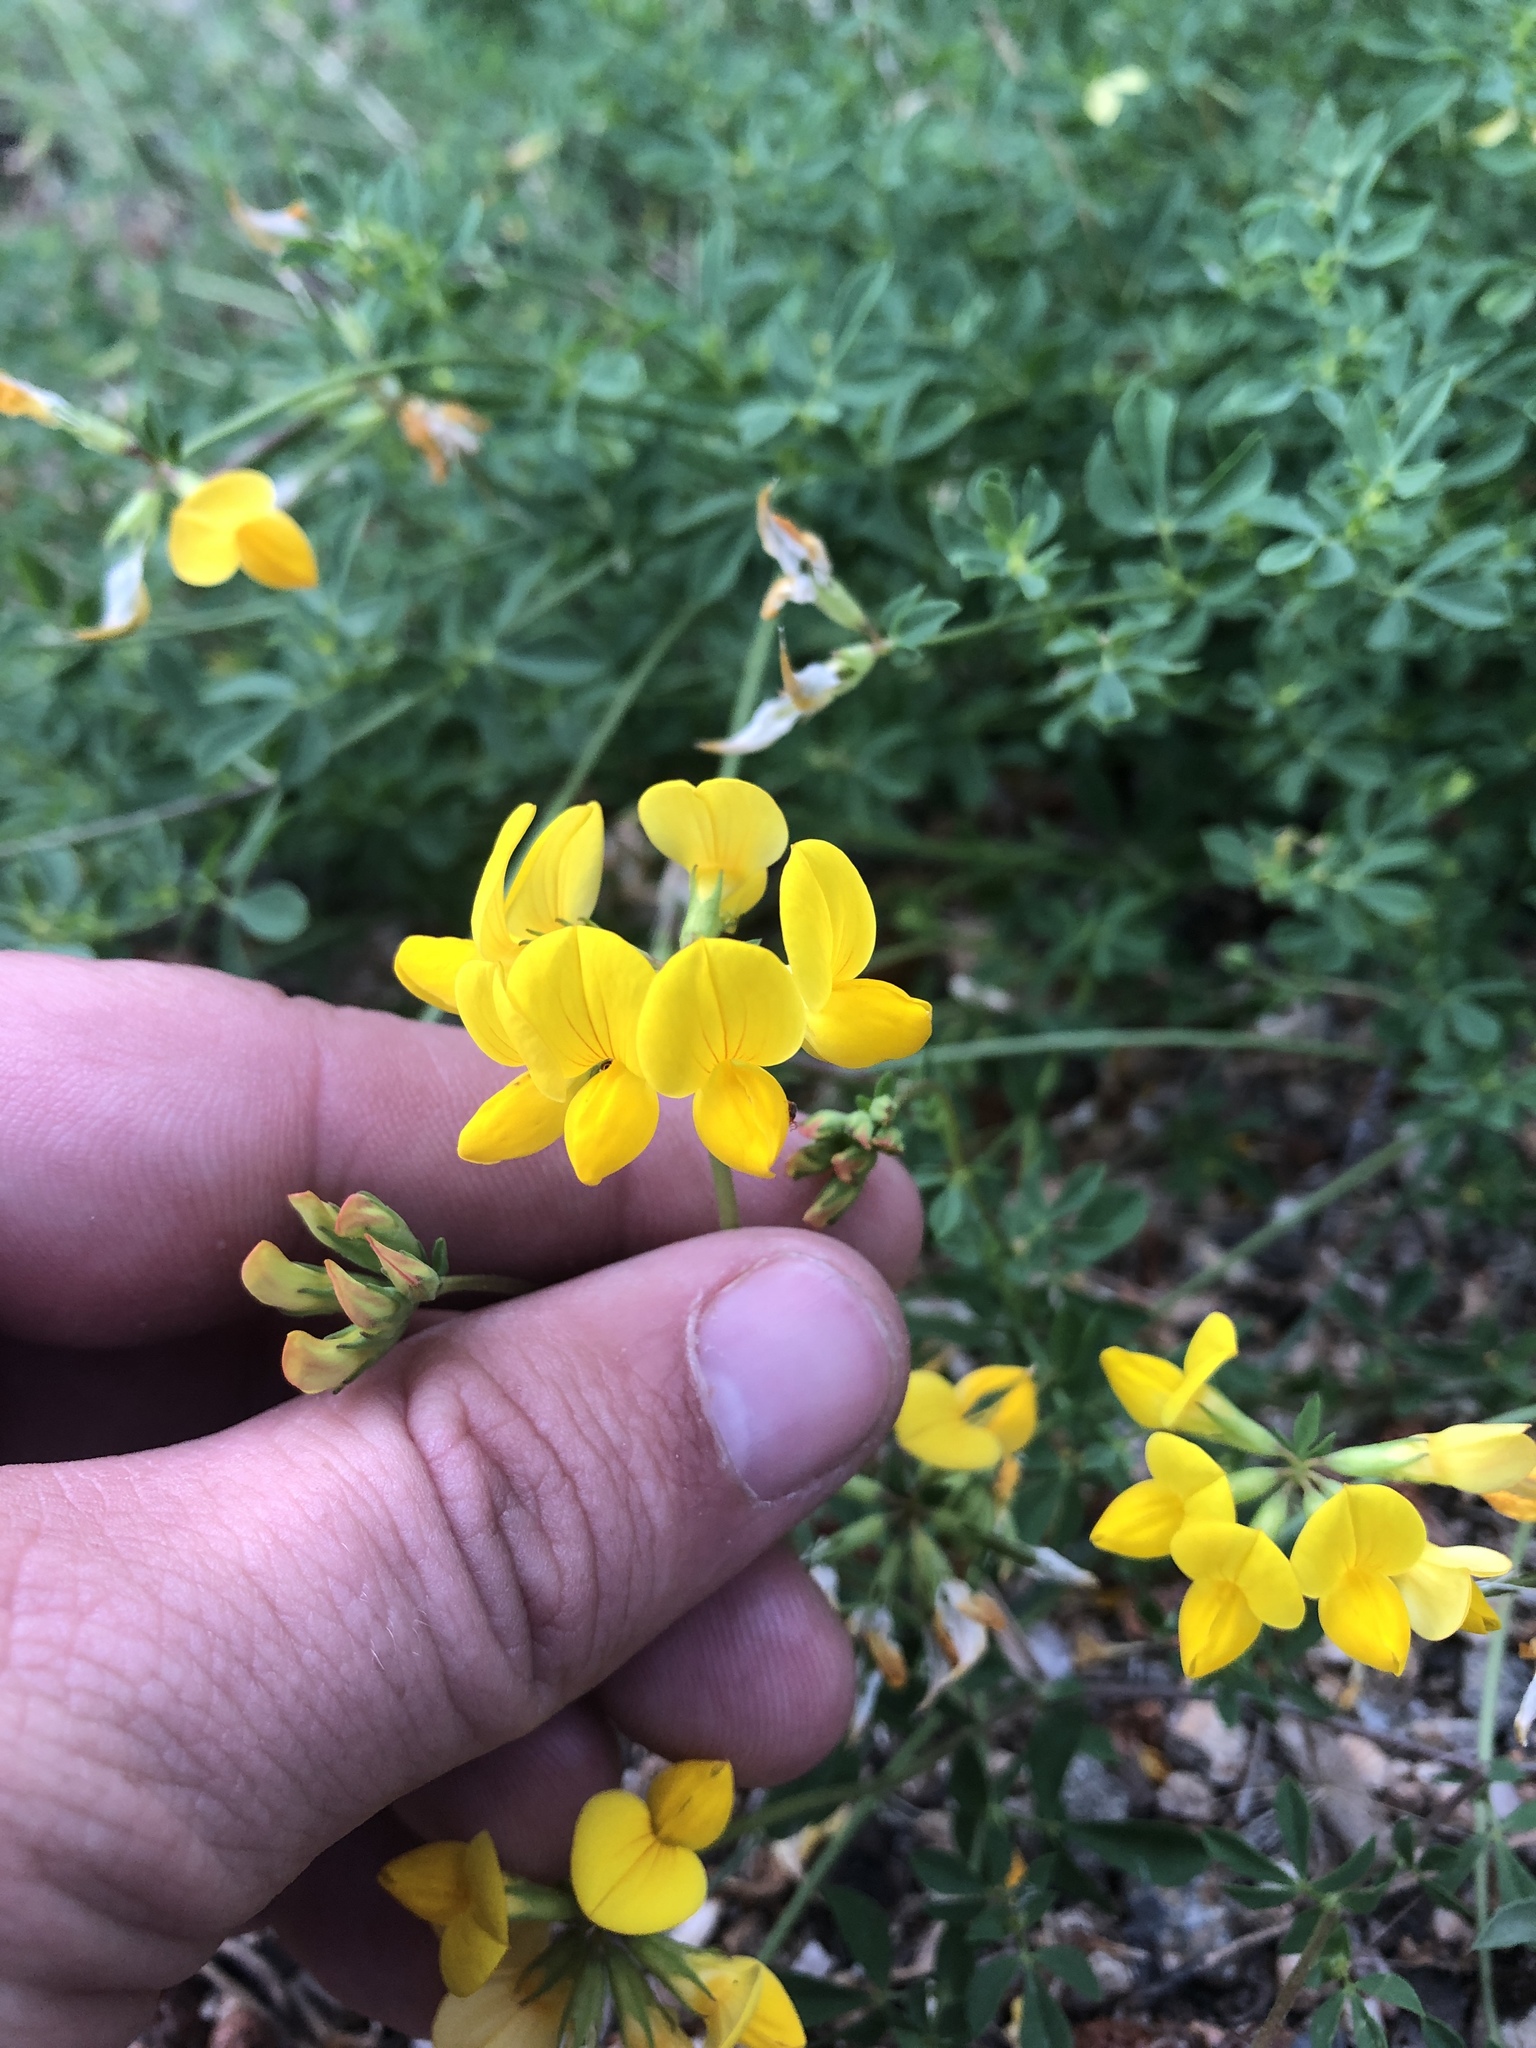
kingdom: Plantae
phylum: Tracheophyta
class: Magnoliopsida
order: Fabales
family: Fabaceae
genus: Lotus
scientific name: Lotus corniculatus
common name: Common bird's-foot-trefoil
